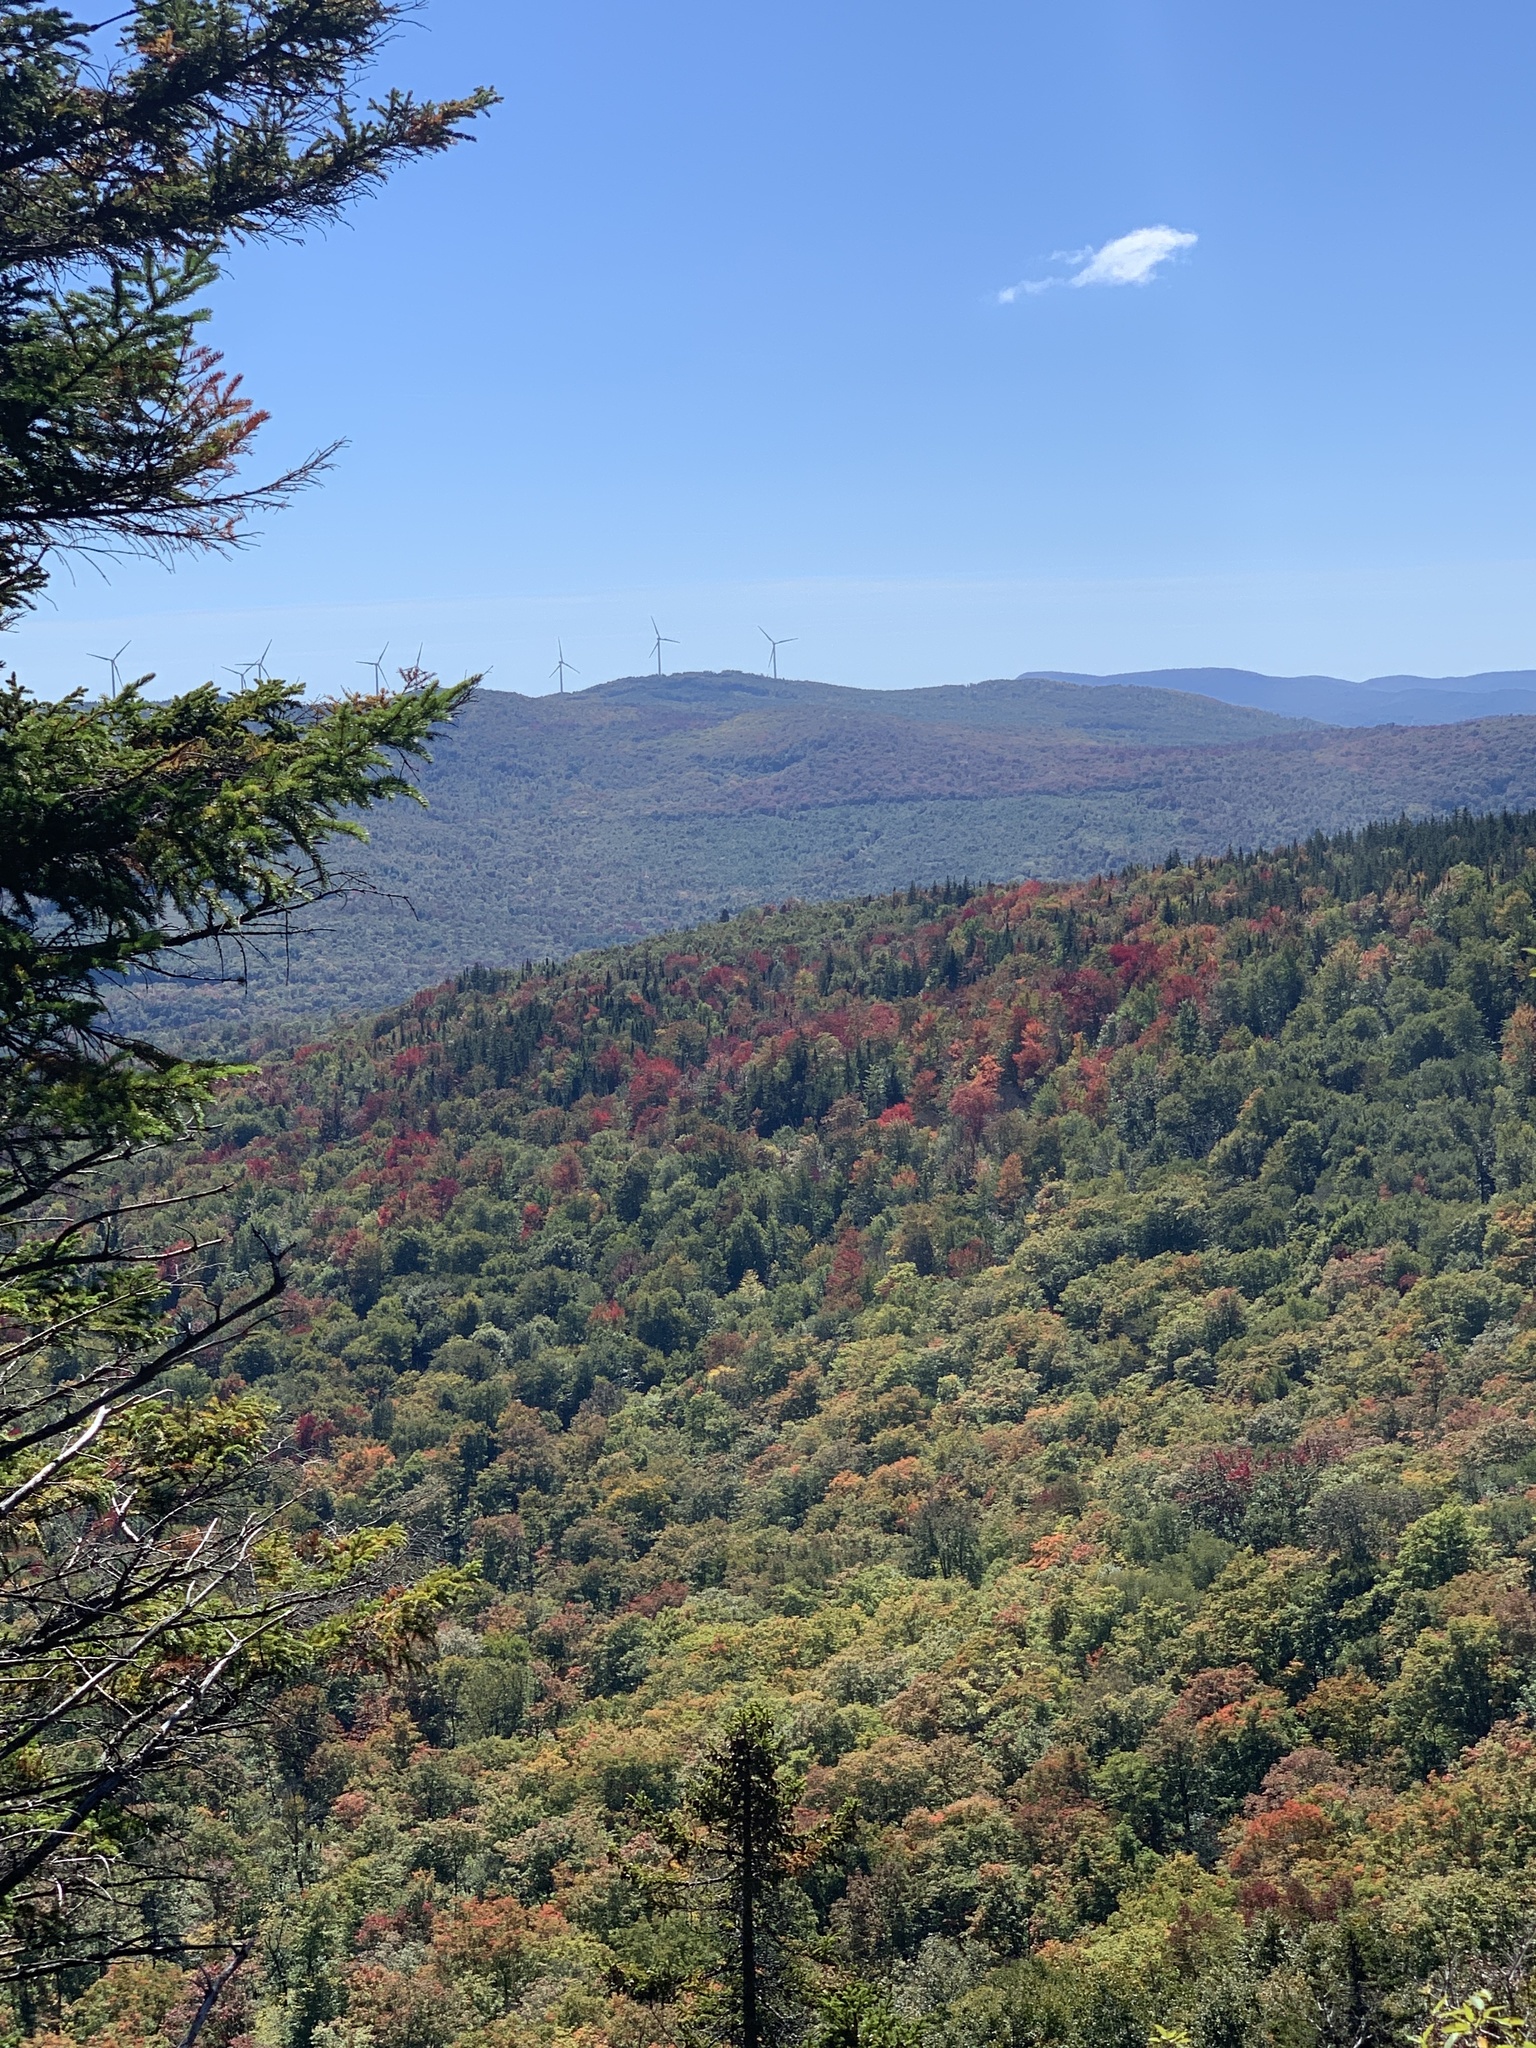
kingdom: Plantae
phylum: Tracheophyta
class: Magnoliopsida
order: Sapindales
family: Sapindaceae
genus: Acer
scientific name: Acer rubrum
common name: Red maple
